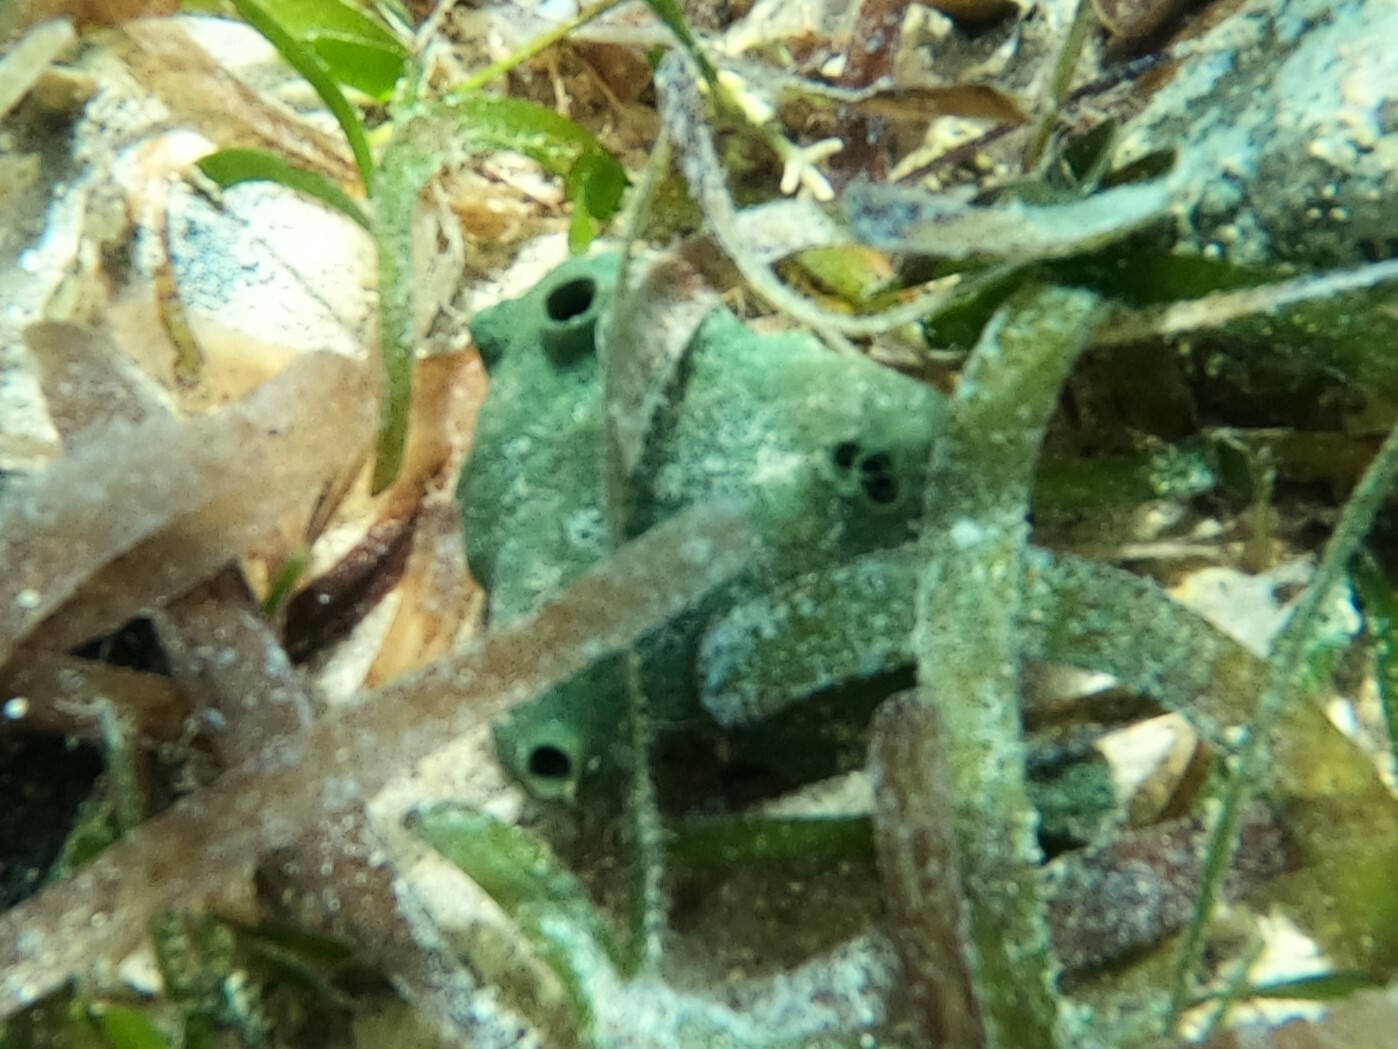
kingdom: Animalia
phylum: Porifera
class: Demospongiae
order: Haplosclerida
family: Niphatidae
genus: Amphimedon
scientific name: Amphimedon viridis
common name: Green sponge
